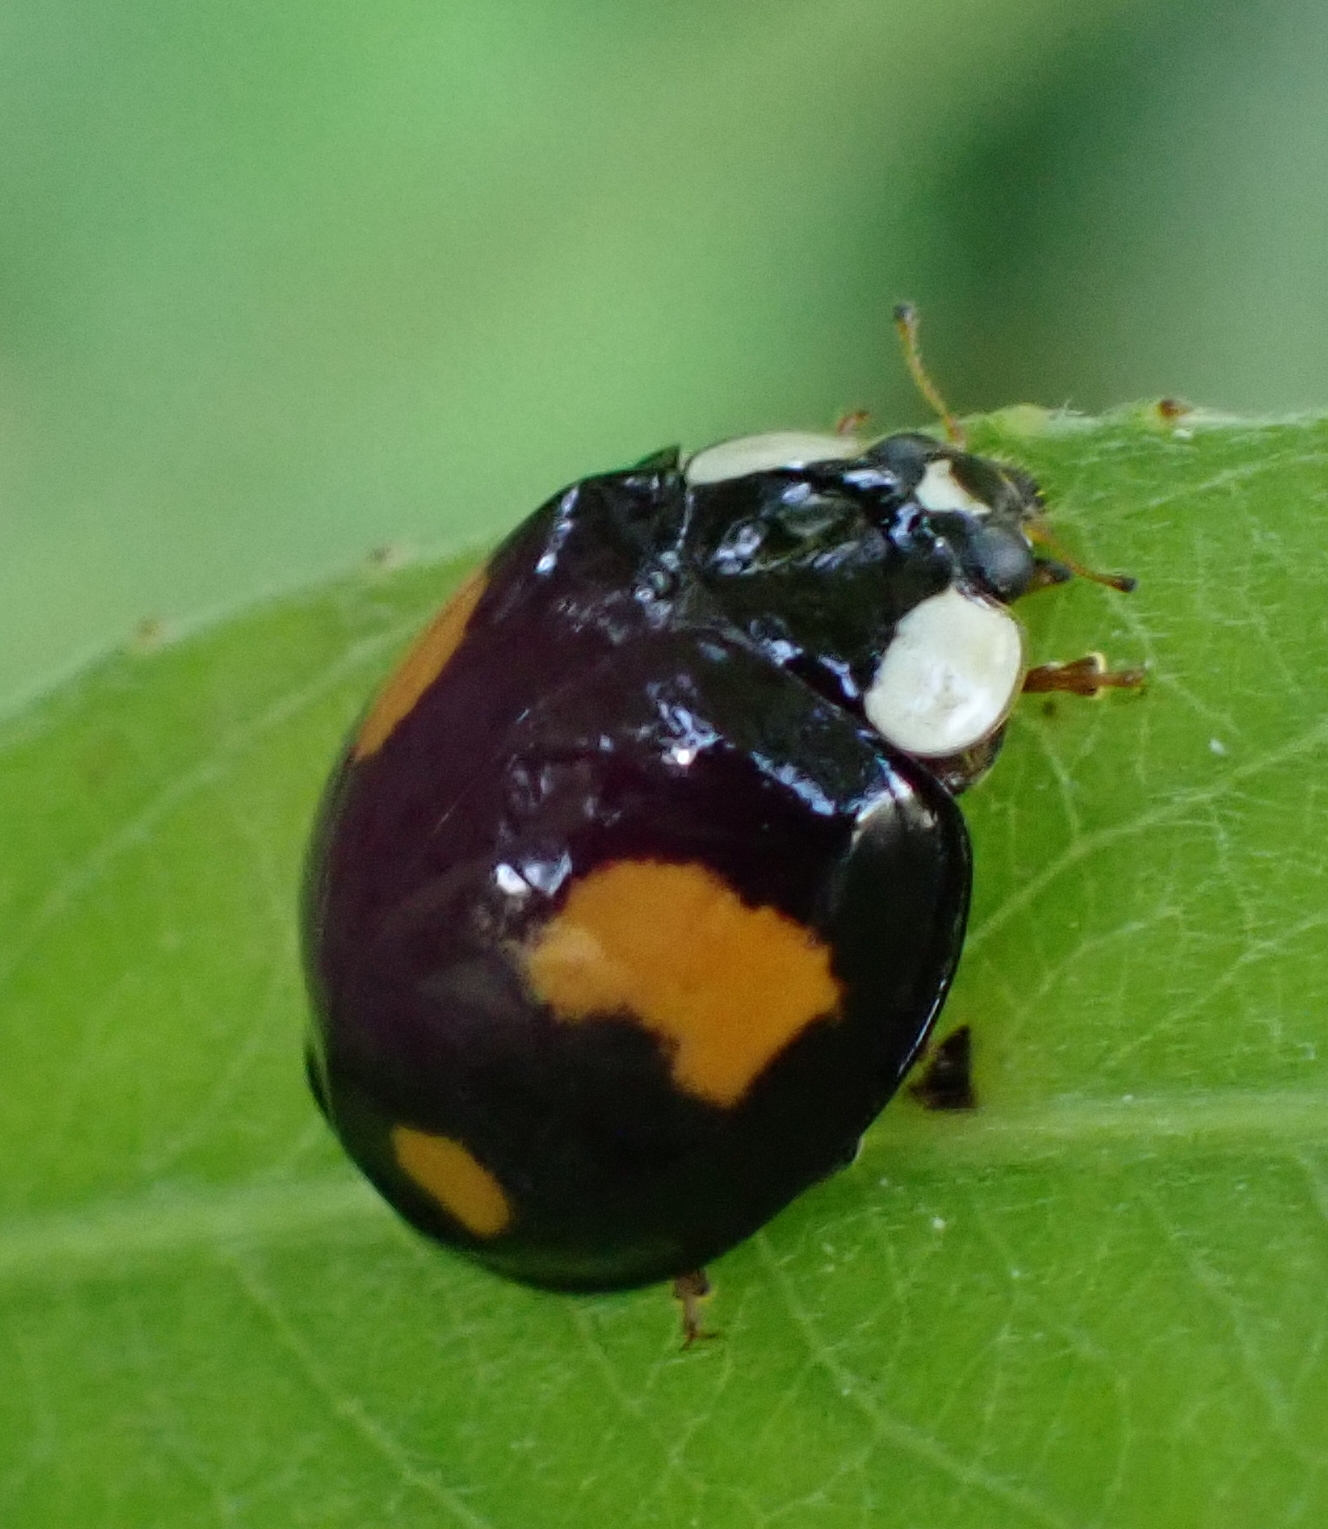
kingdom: Animalia
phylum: Arthropoda
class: Insecta
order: Coleoptera
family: Coccinellidae
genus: Harmonia
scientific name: Harmonia axyridis
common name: Harlequin ladybird
